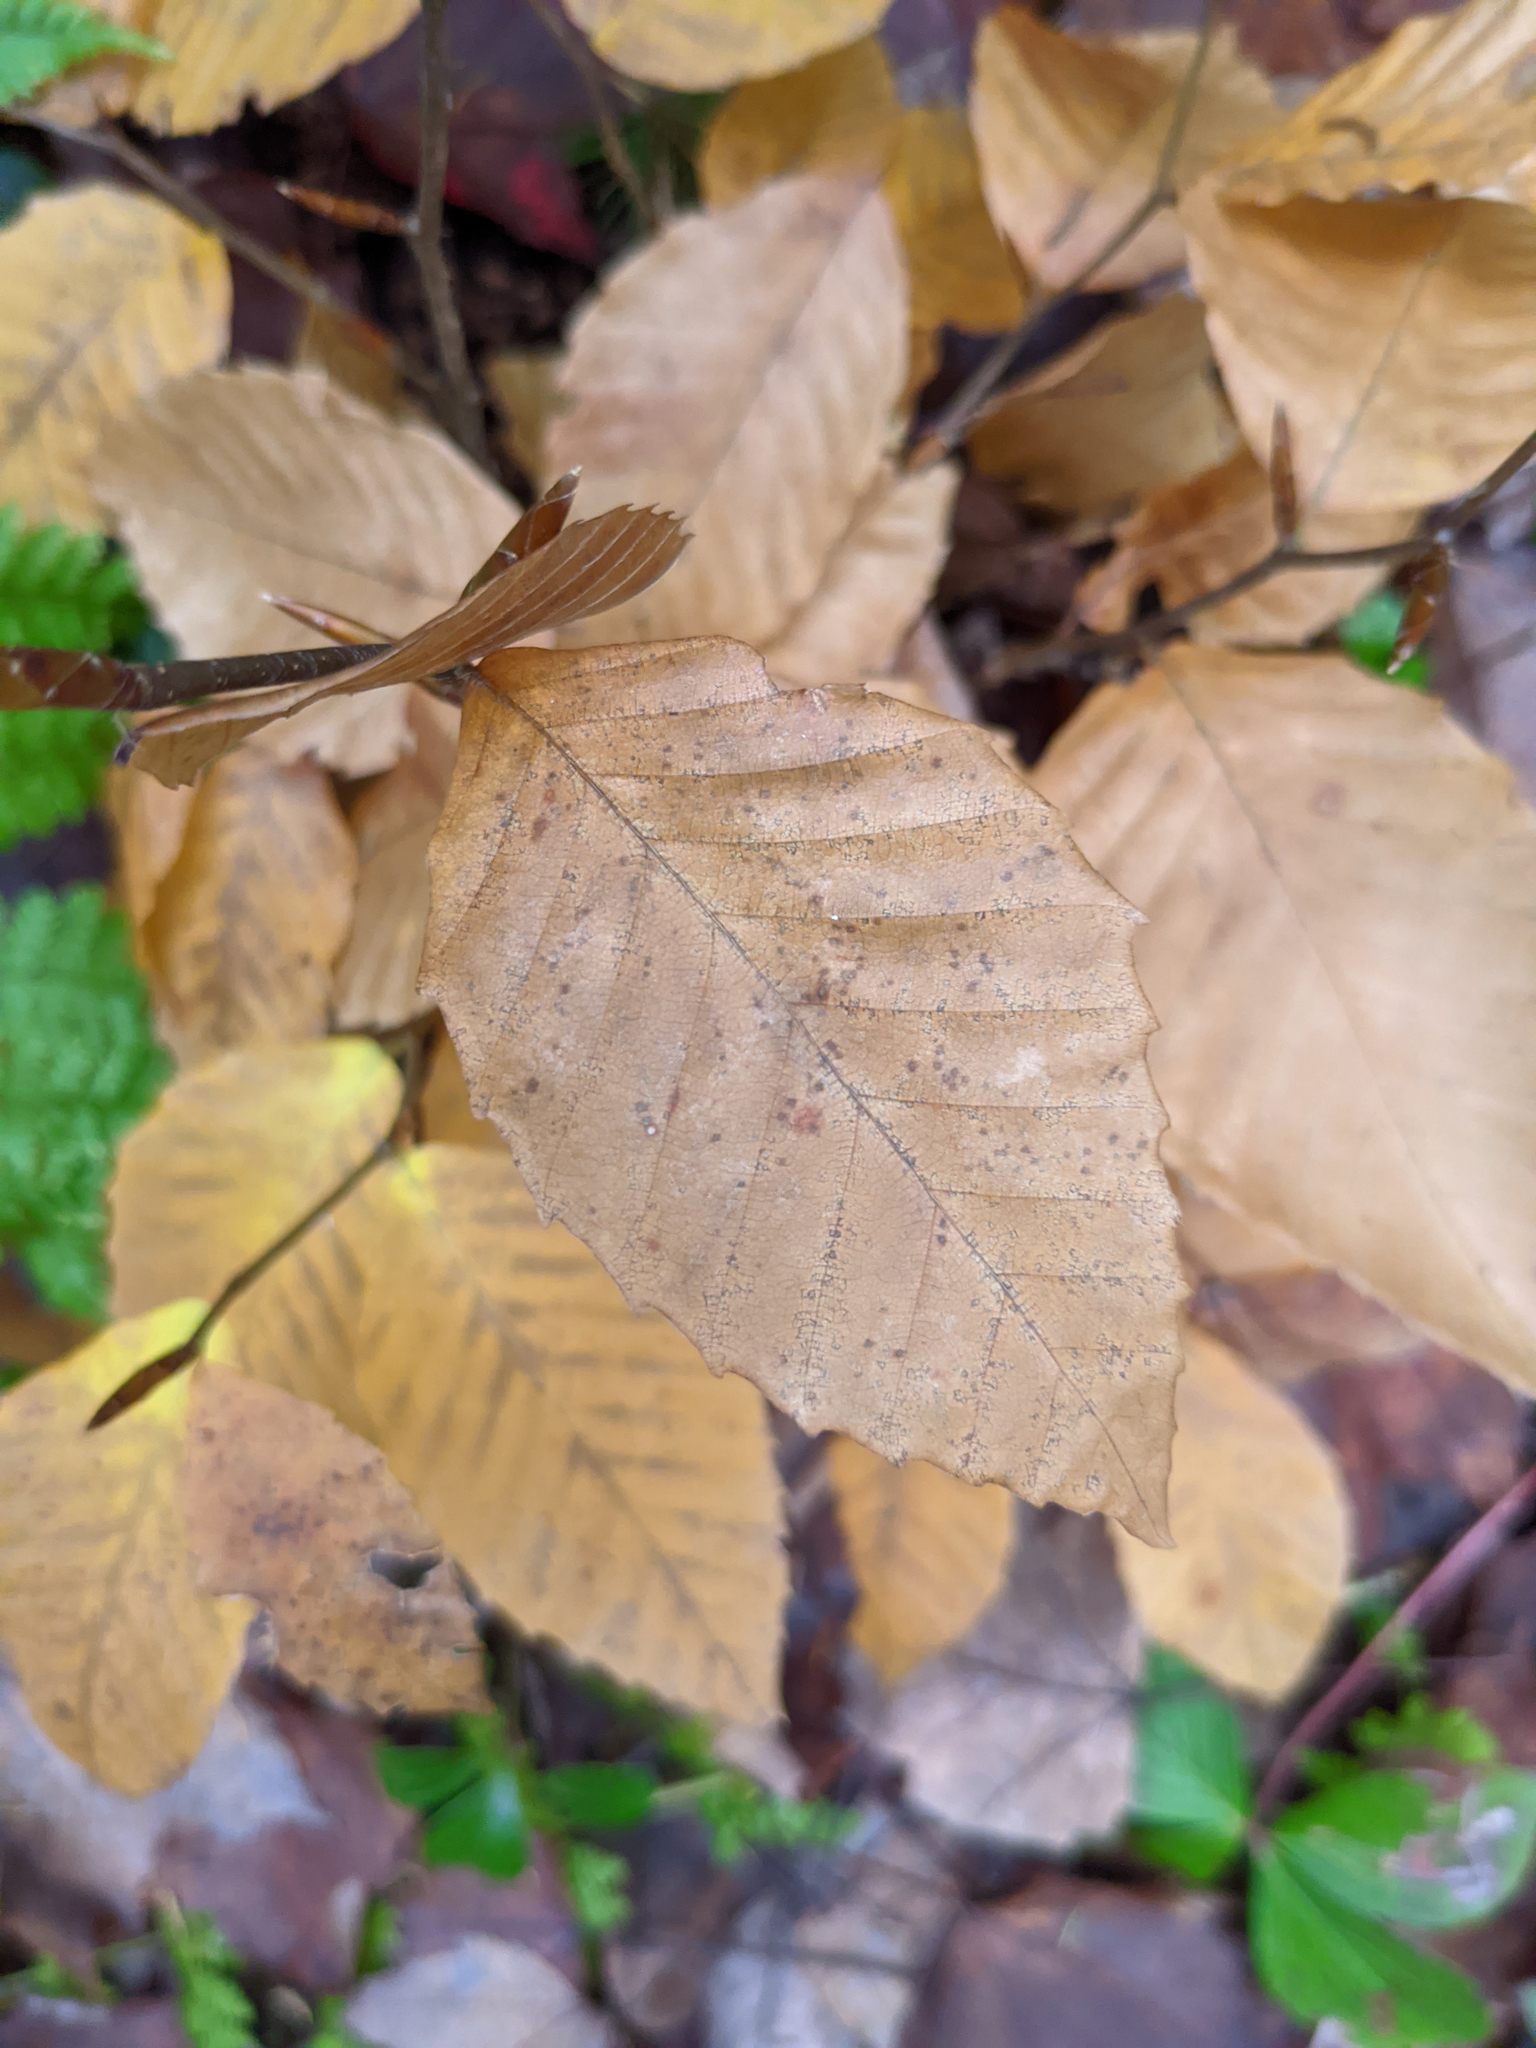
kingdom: Plantae
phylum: Tracheophyta
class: Magnoliopsida
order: Fagales
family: Fagaceae
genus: Fagus
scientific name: Fagus grandifolia
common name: American beech
